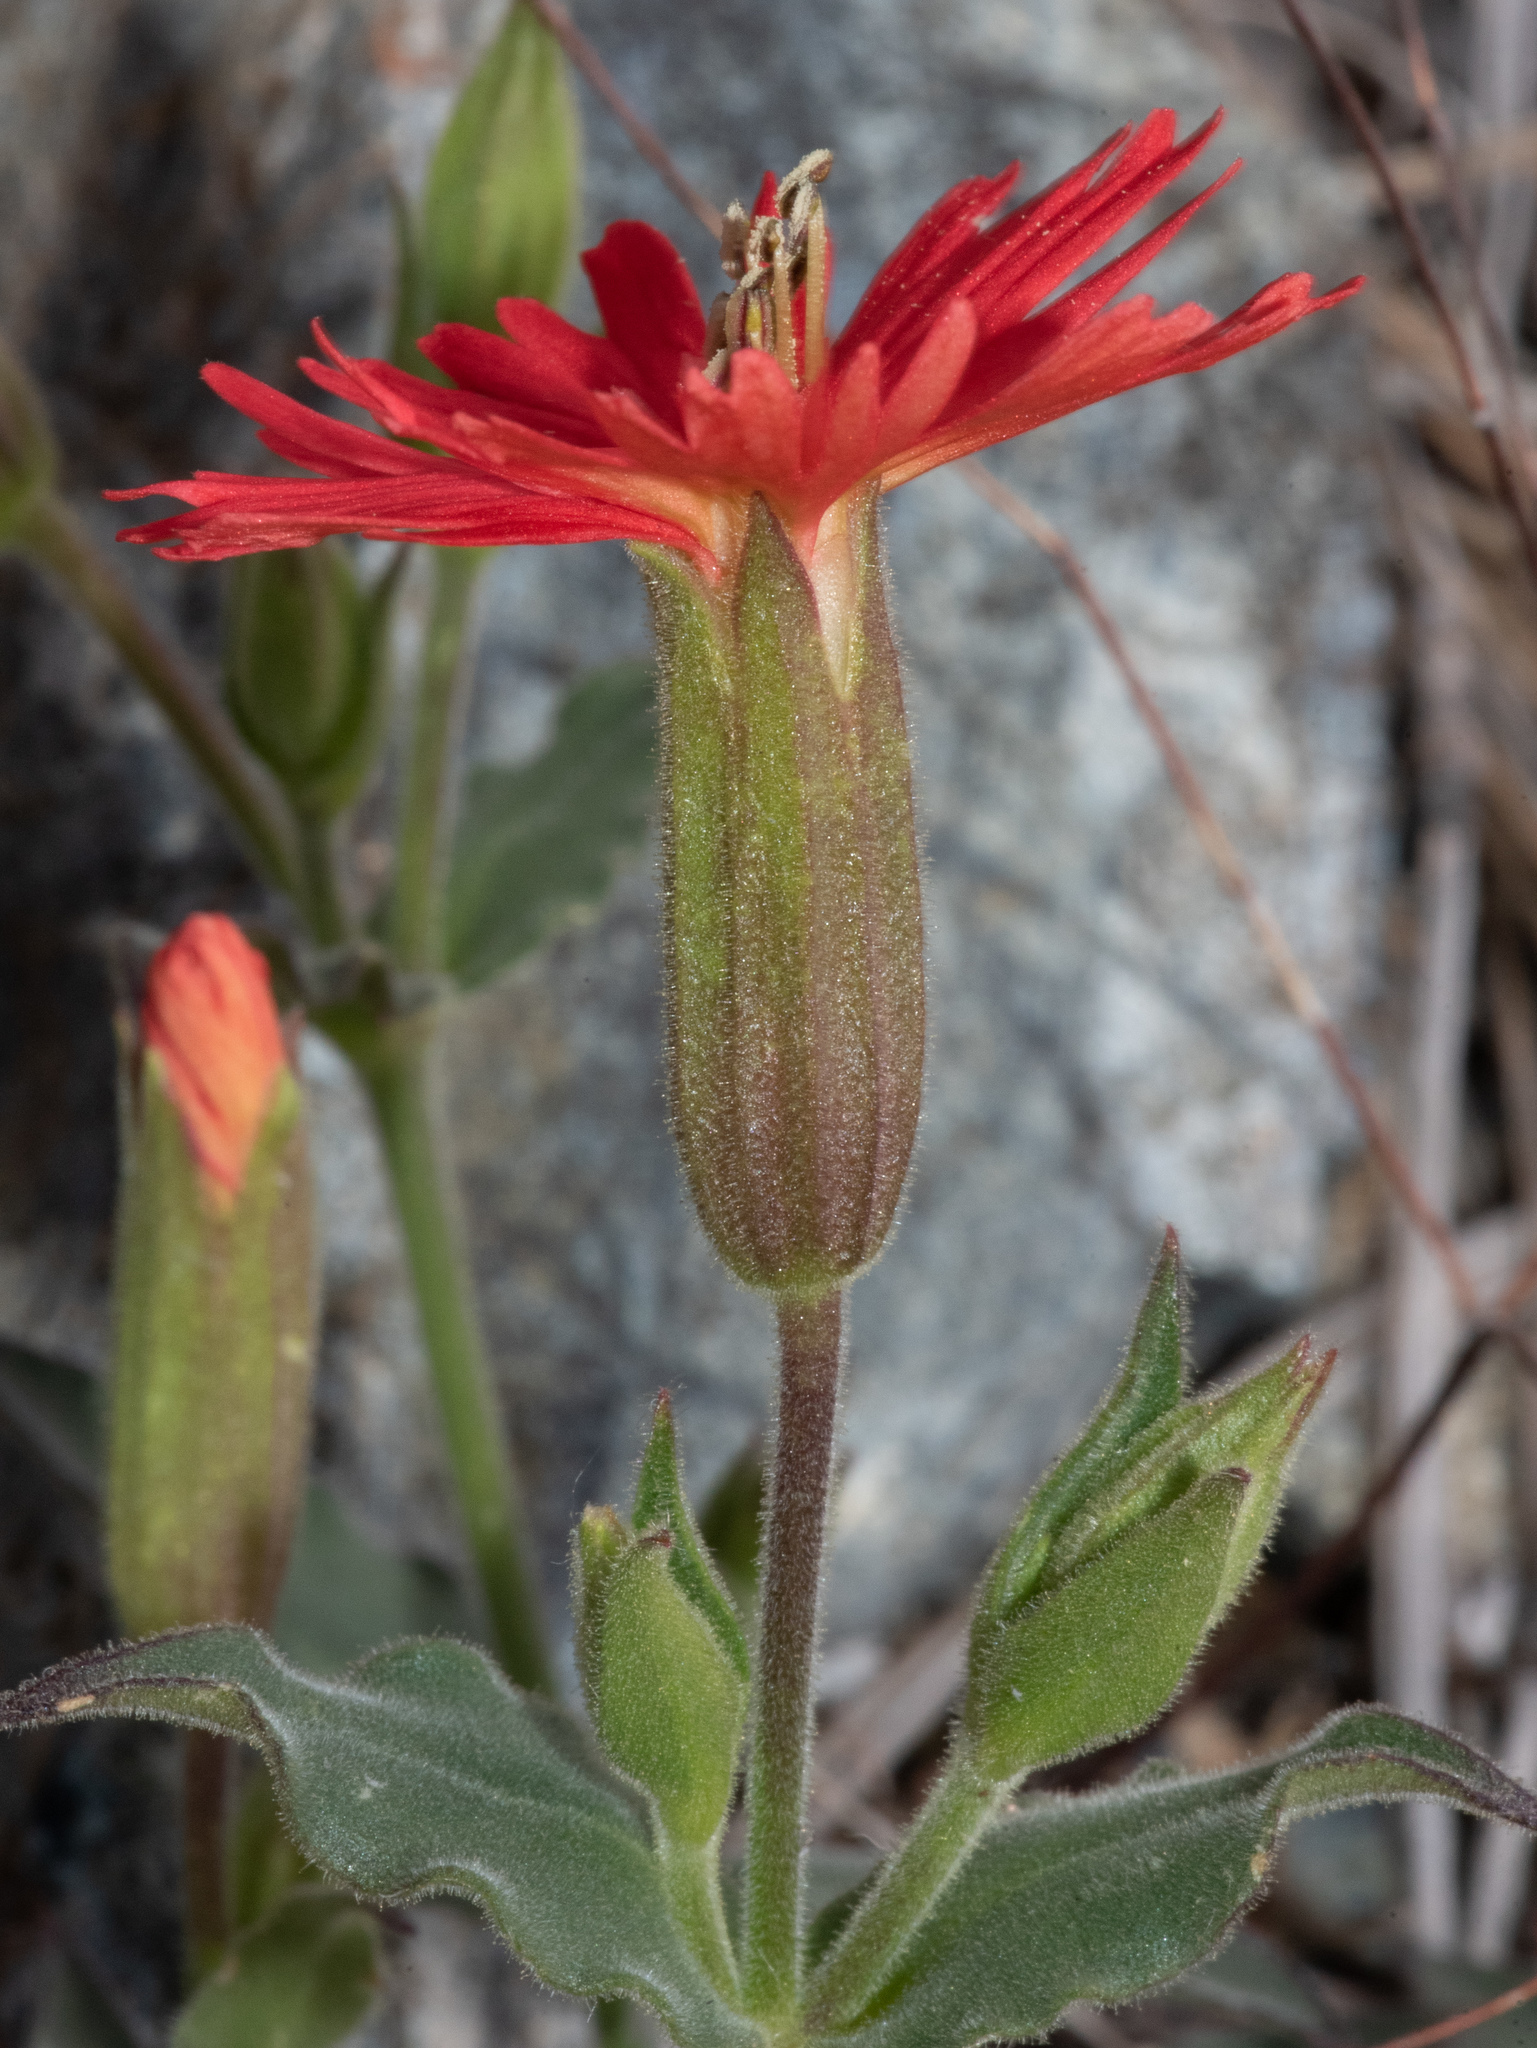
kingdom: Plantae
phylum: Tracheophyta
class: Magnoliopsida
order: Caryophyllales
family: Caryophyllaceae
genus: Silene
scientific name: Silene laciniata
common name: Indian-pink
